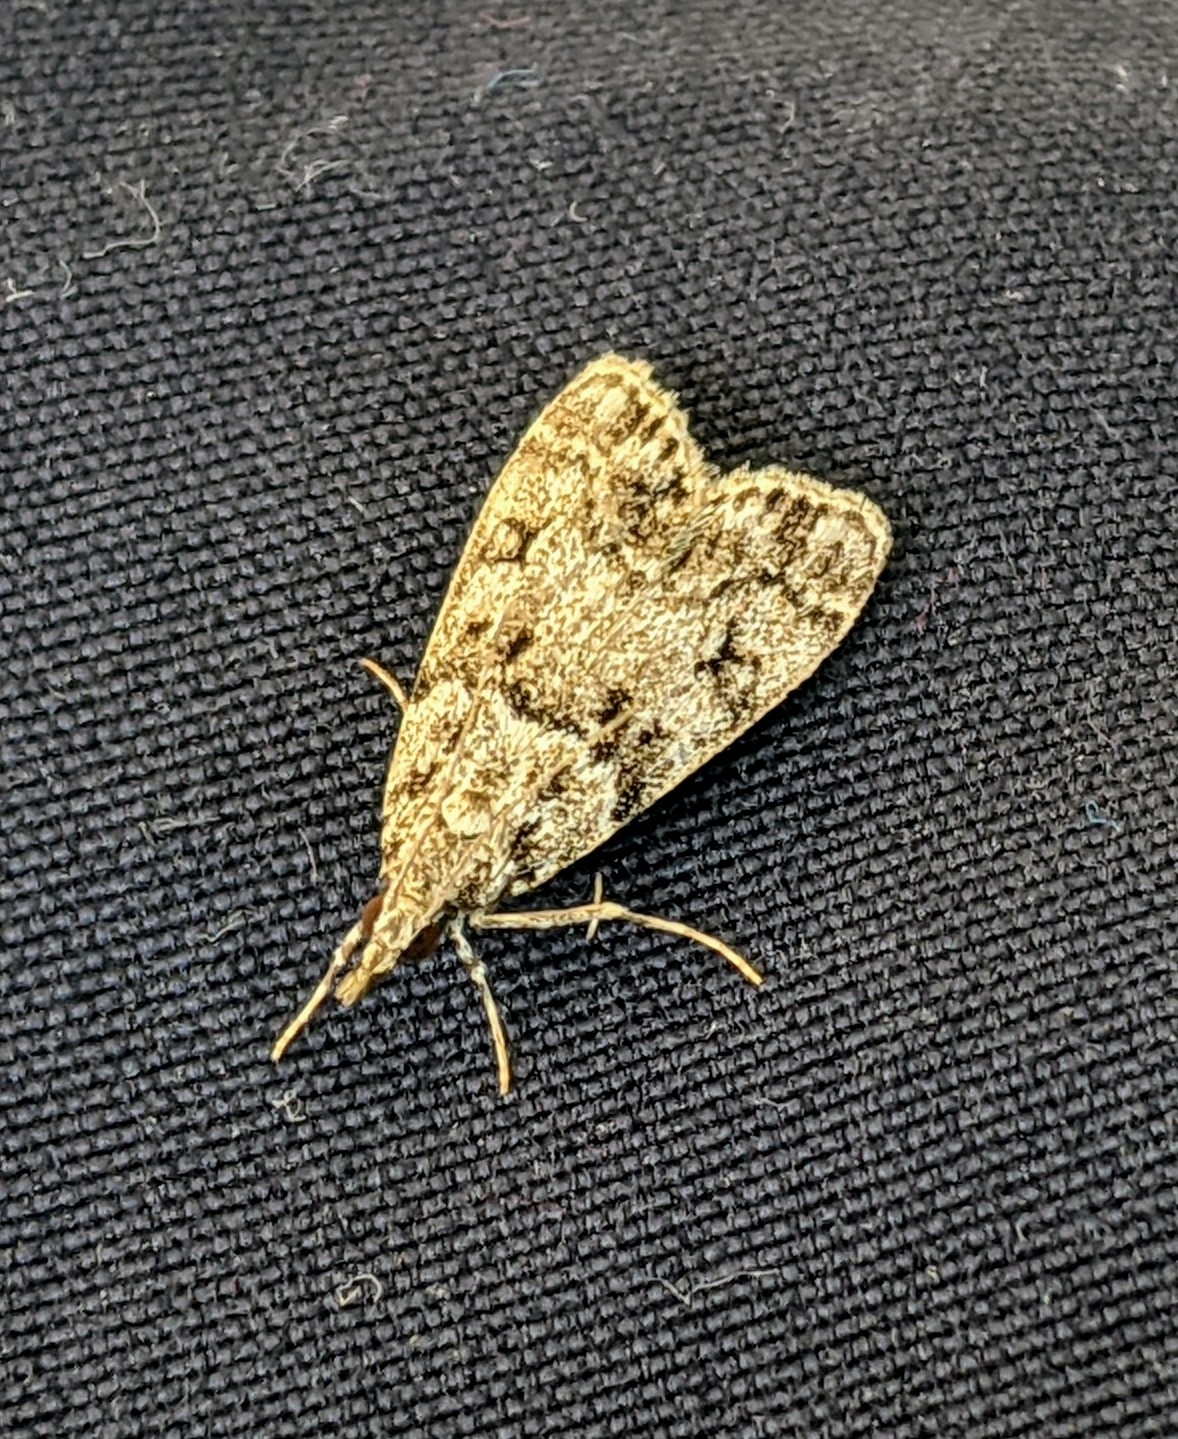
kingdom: Animalia
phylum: Arthropoda
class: Insecta
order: Lepidoptera
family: Crambidae
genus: Eudonia
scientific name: Eudonia lacustrata
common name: Little grey
